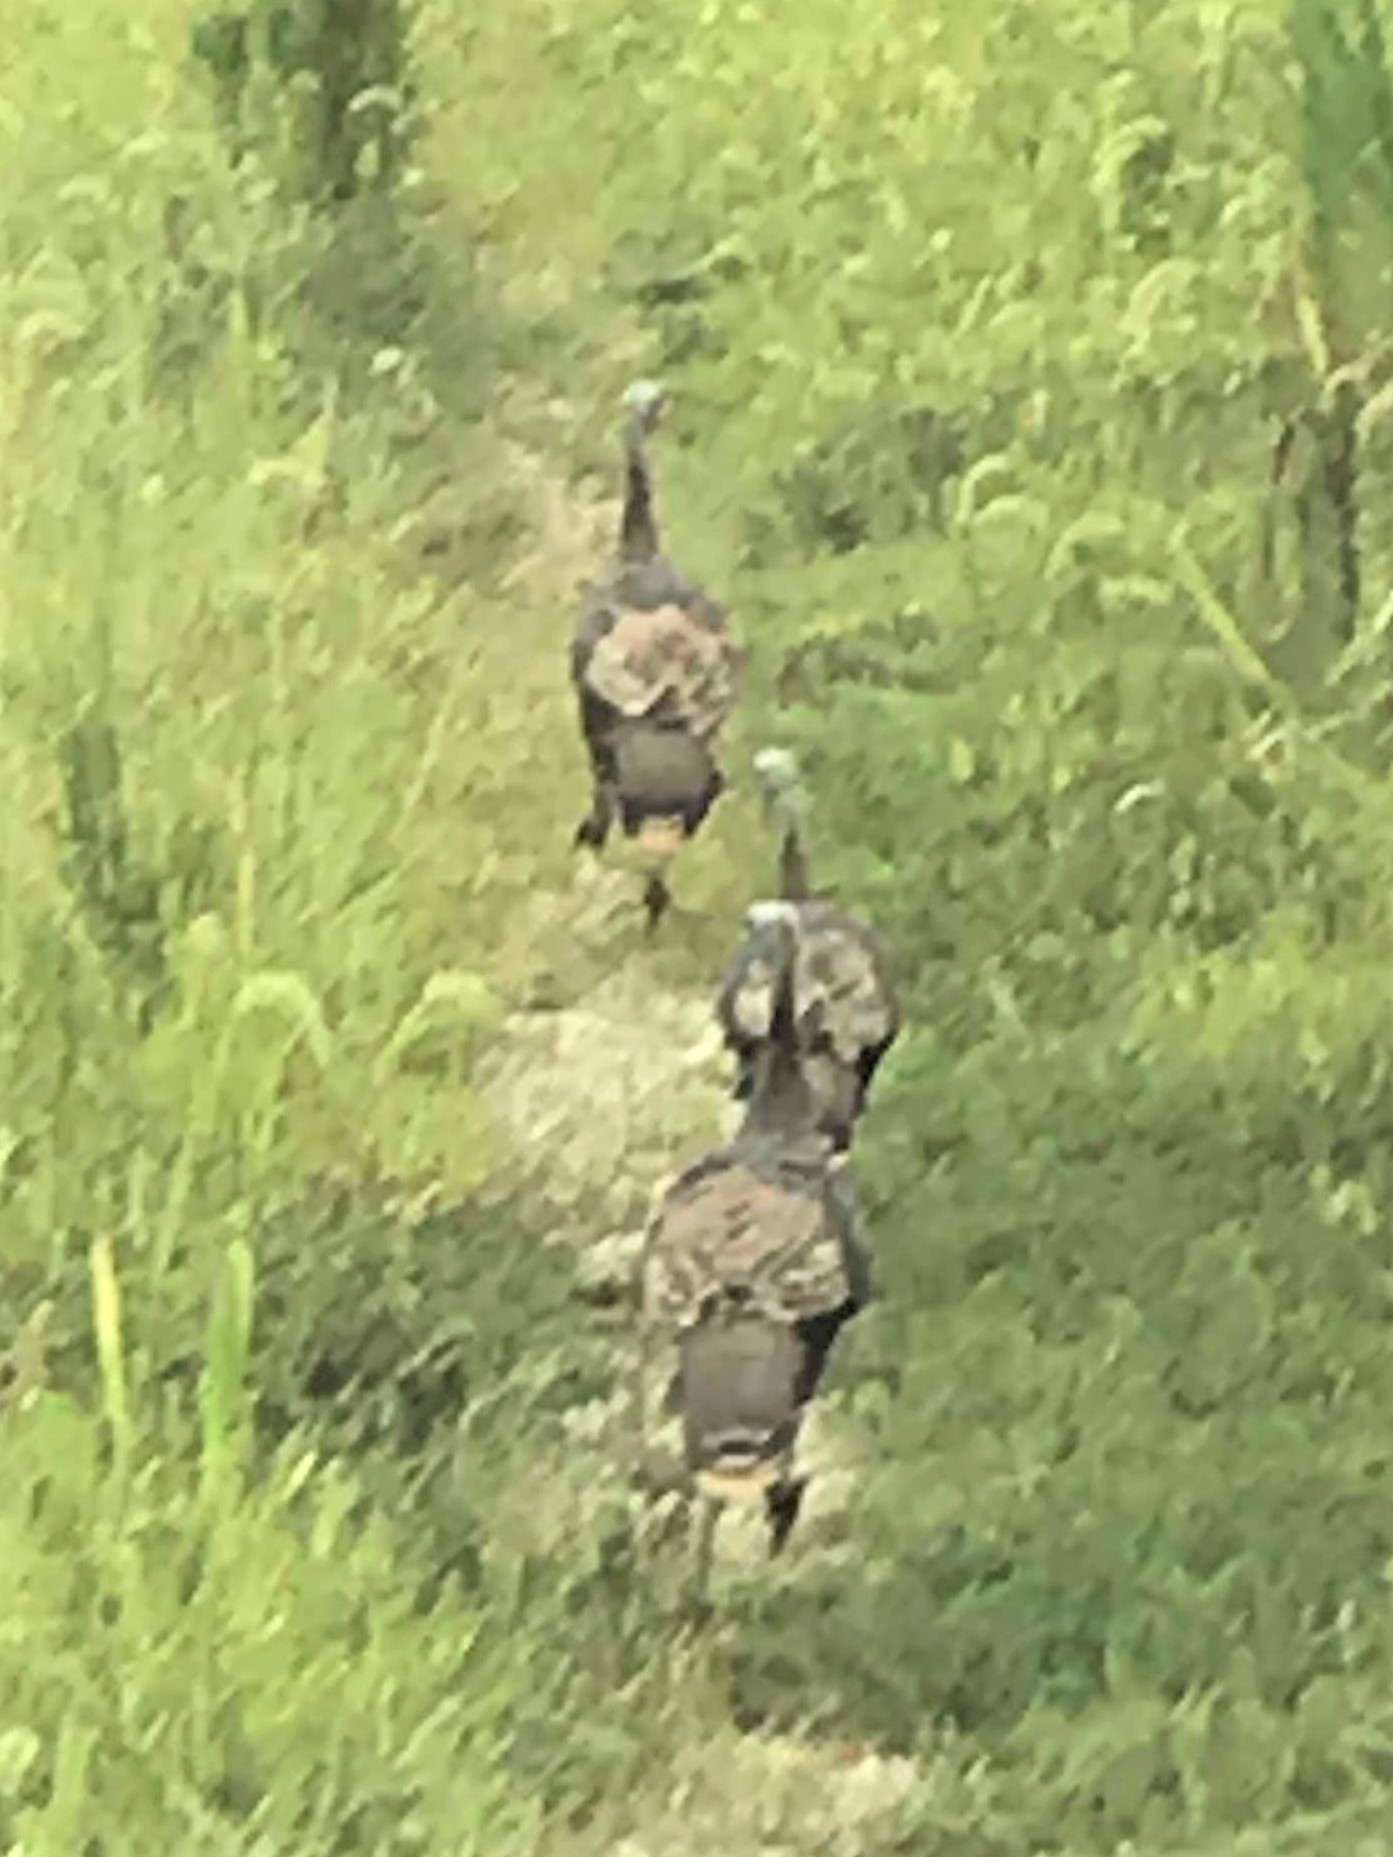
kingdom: Animalia
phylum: Chordata
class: Aves
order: Galliformes
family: Phasianidae
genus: Meleagris
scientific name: Meleagris gallopavo
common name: Wild turkey
